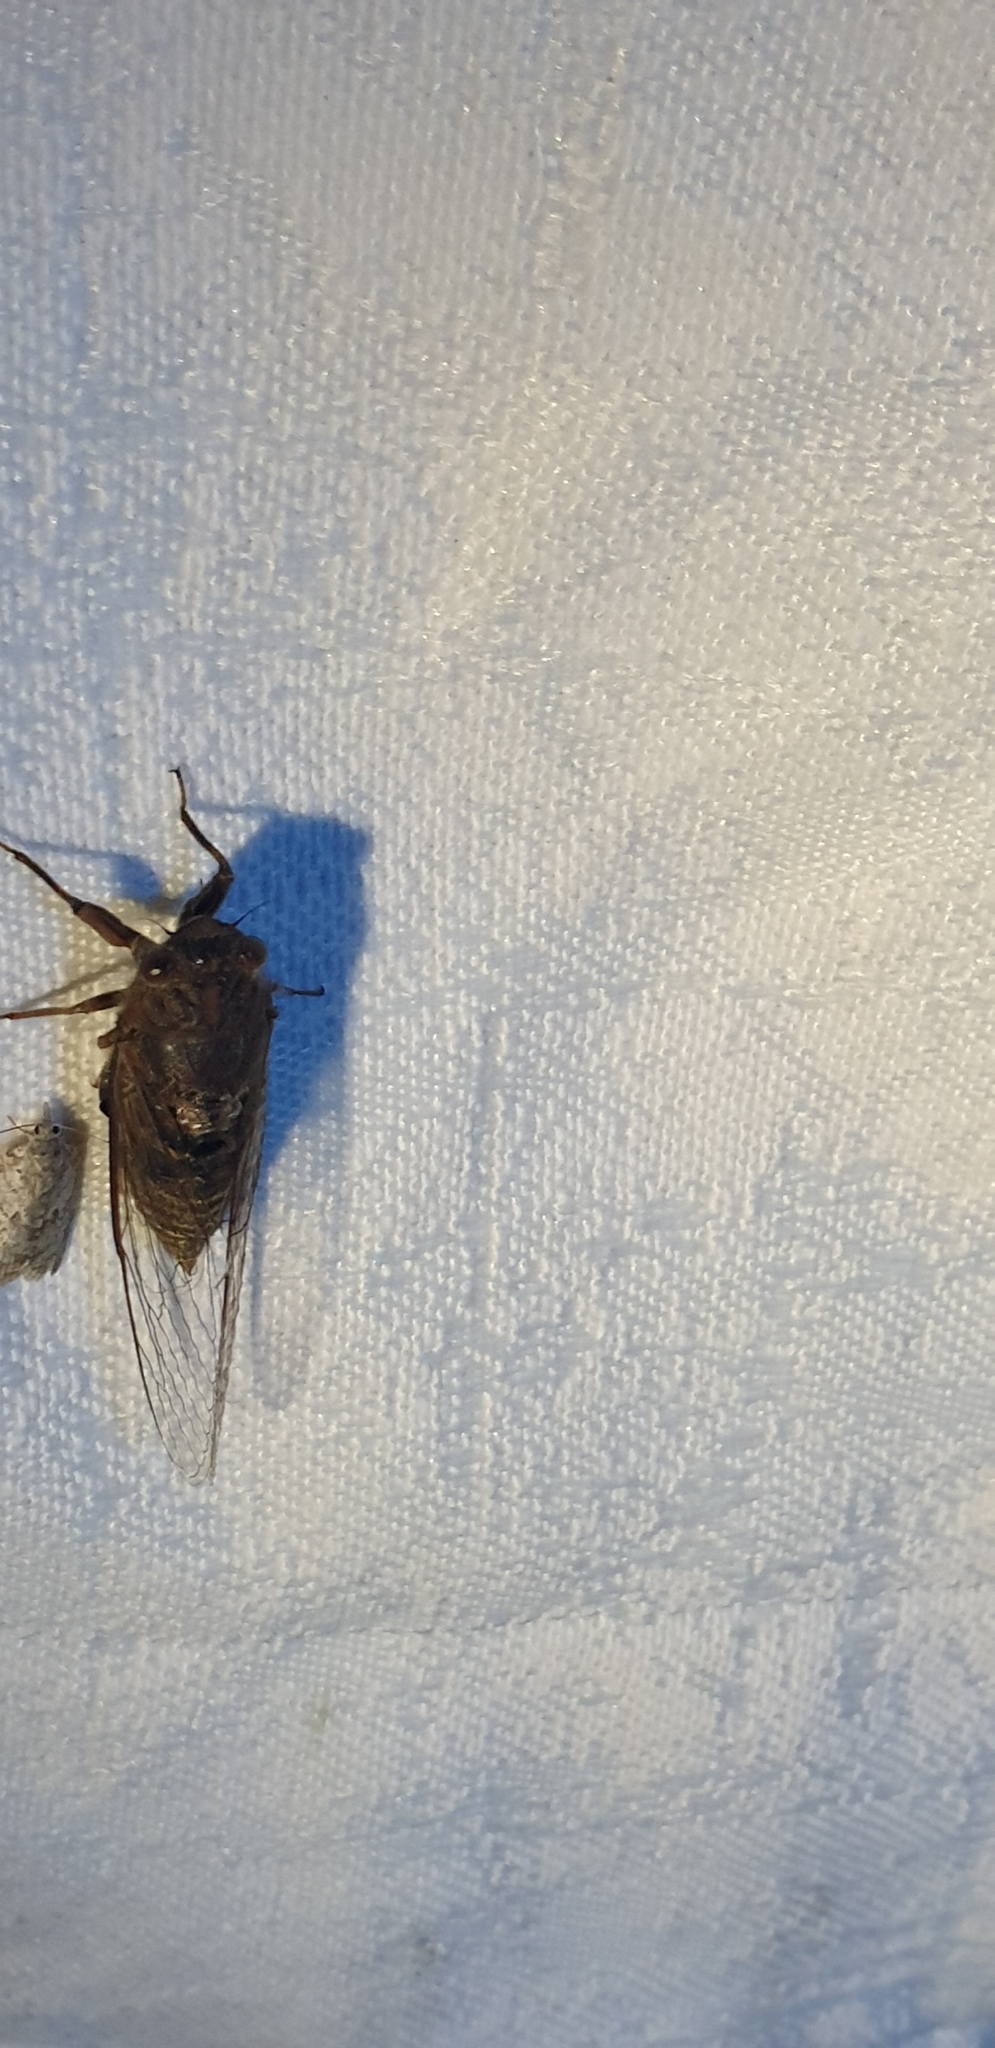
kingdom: Animalia
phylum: Arthropoda
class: Insecta
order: Hemiptera
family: Cicadidae
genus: Birrima
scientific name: Birrima varians
